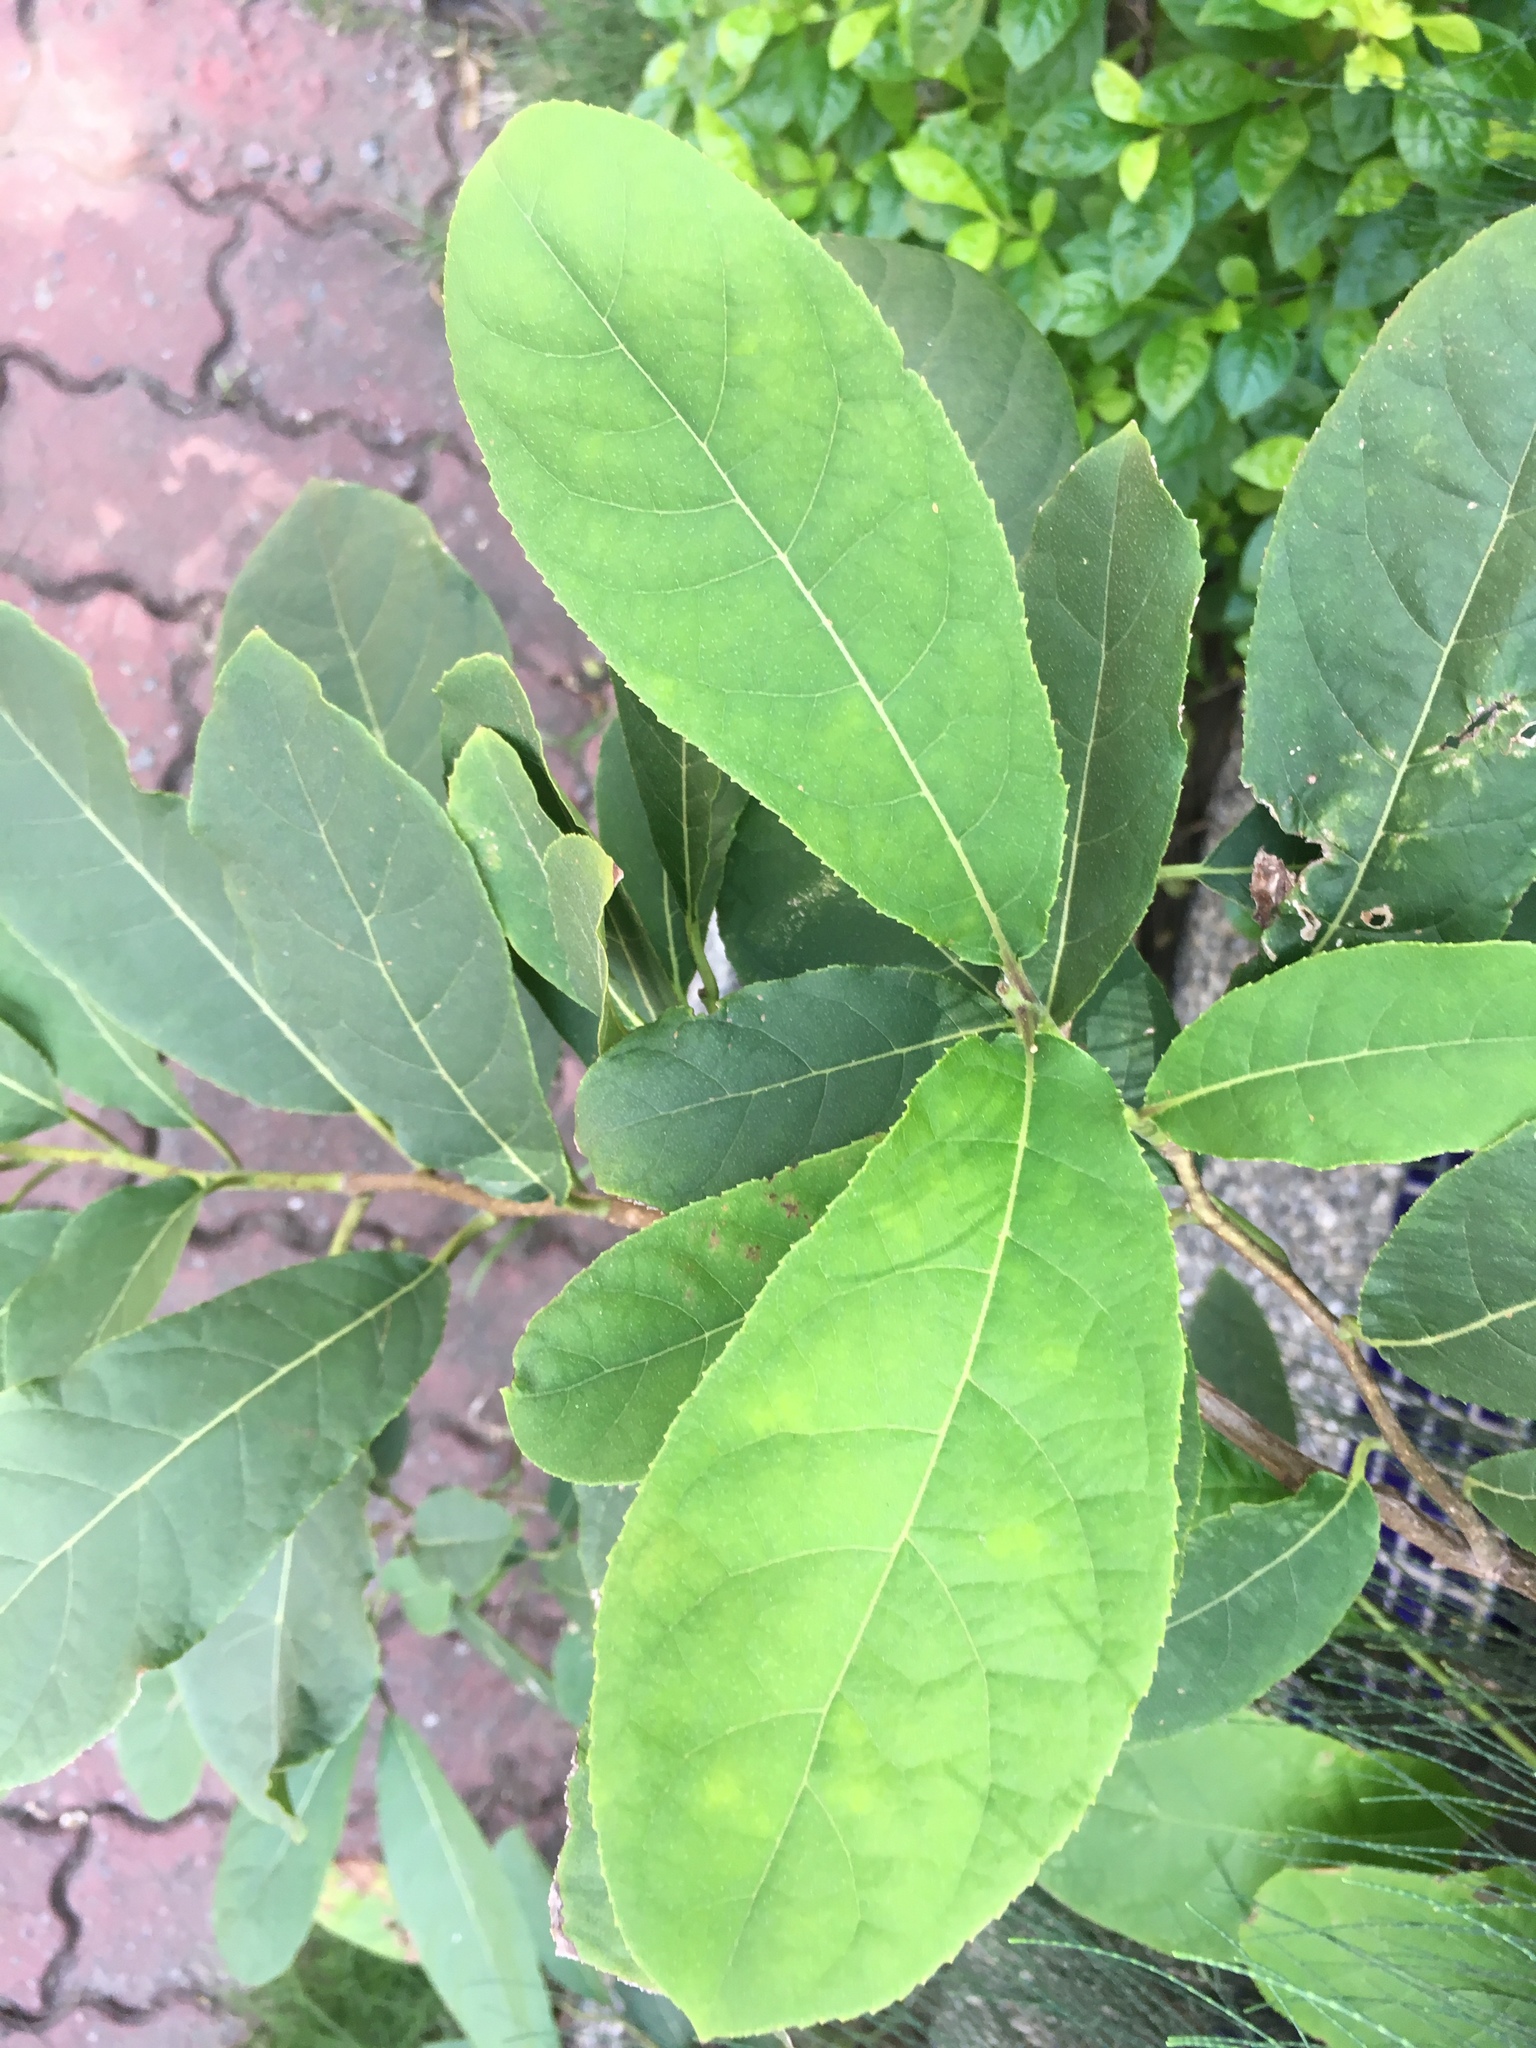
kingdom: Plantae
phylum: Tracheophyta
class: Magnoliopsida
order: Boraginales
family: Ehretiaceae
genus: Ehretia
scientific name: Ehretia acuminata
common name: Kodo wood
